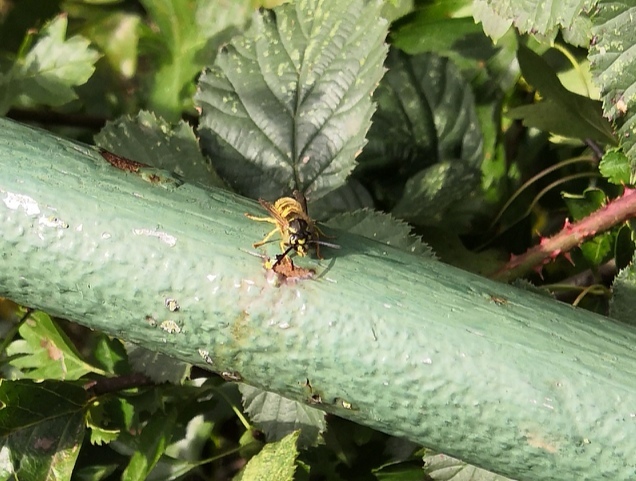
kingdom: Animalia
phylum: Arthropoda
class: Insecta
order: Hymenoptera
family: Vespidae
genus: Vespula
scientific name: Vespula vulgaris
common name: Common wasp
